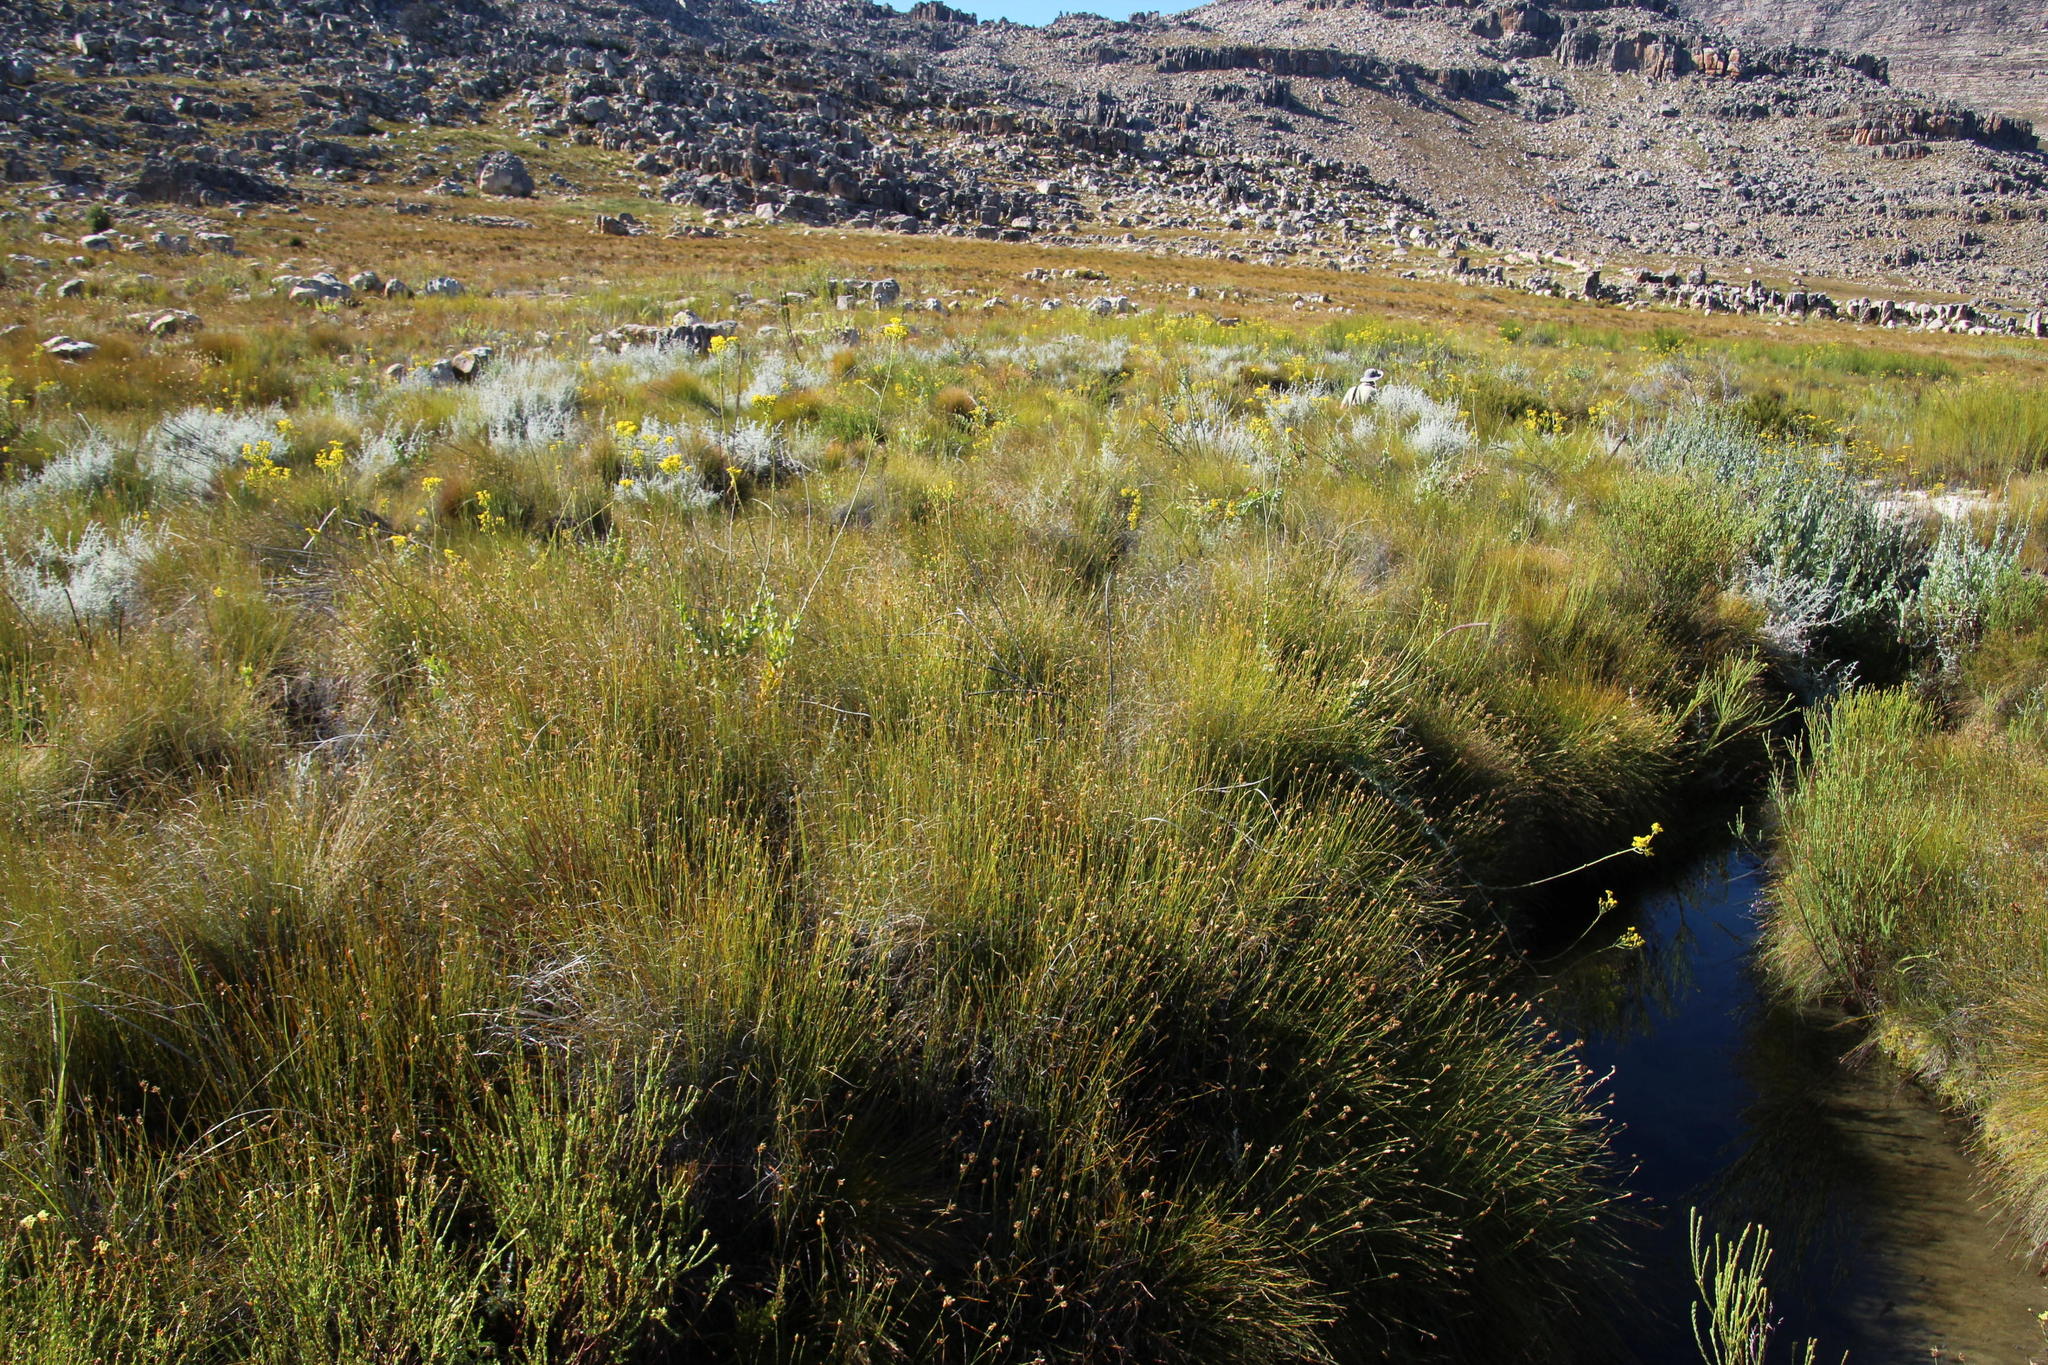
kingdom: Plantae
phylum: Tracheophyta
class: Magnoliopsida
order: Asterales
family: Asteraceae
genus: Othonna
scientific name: Othonna parviflora
